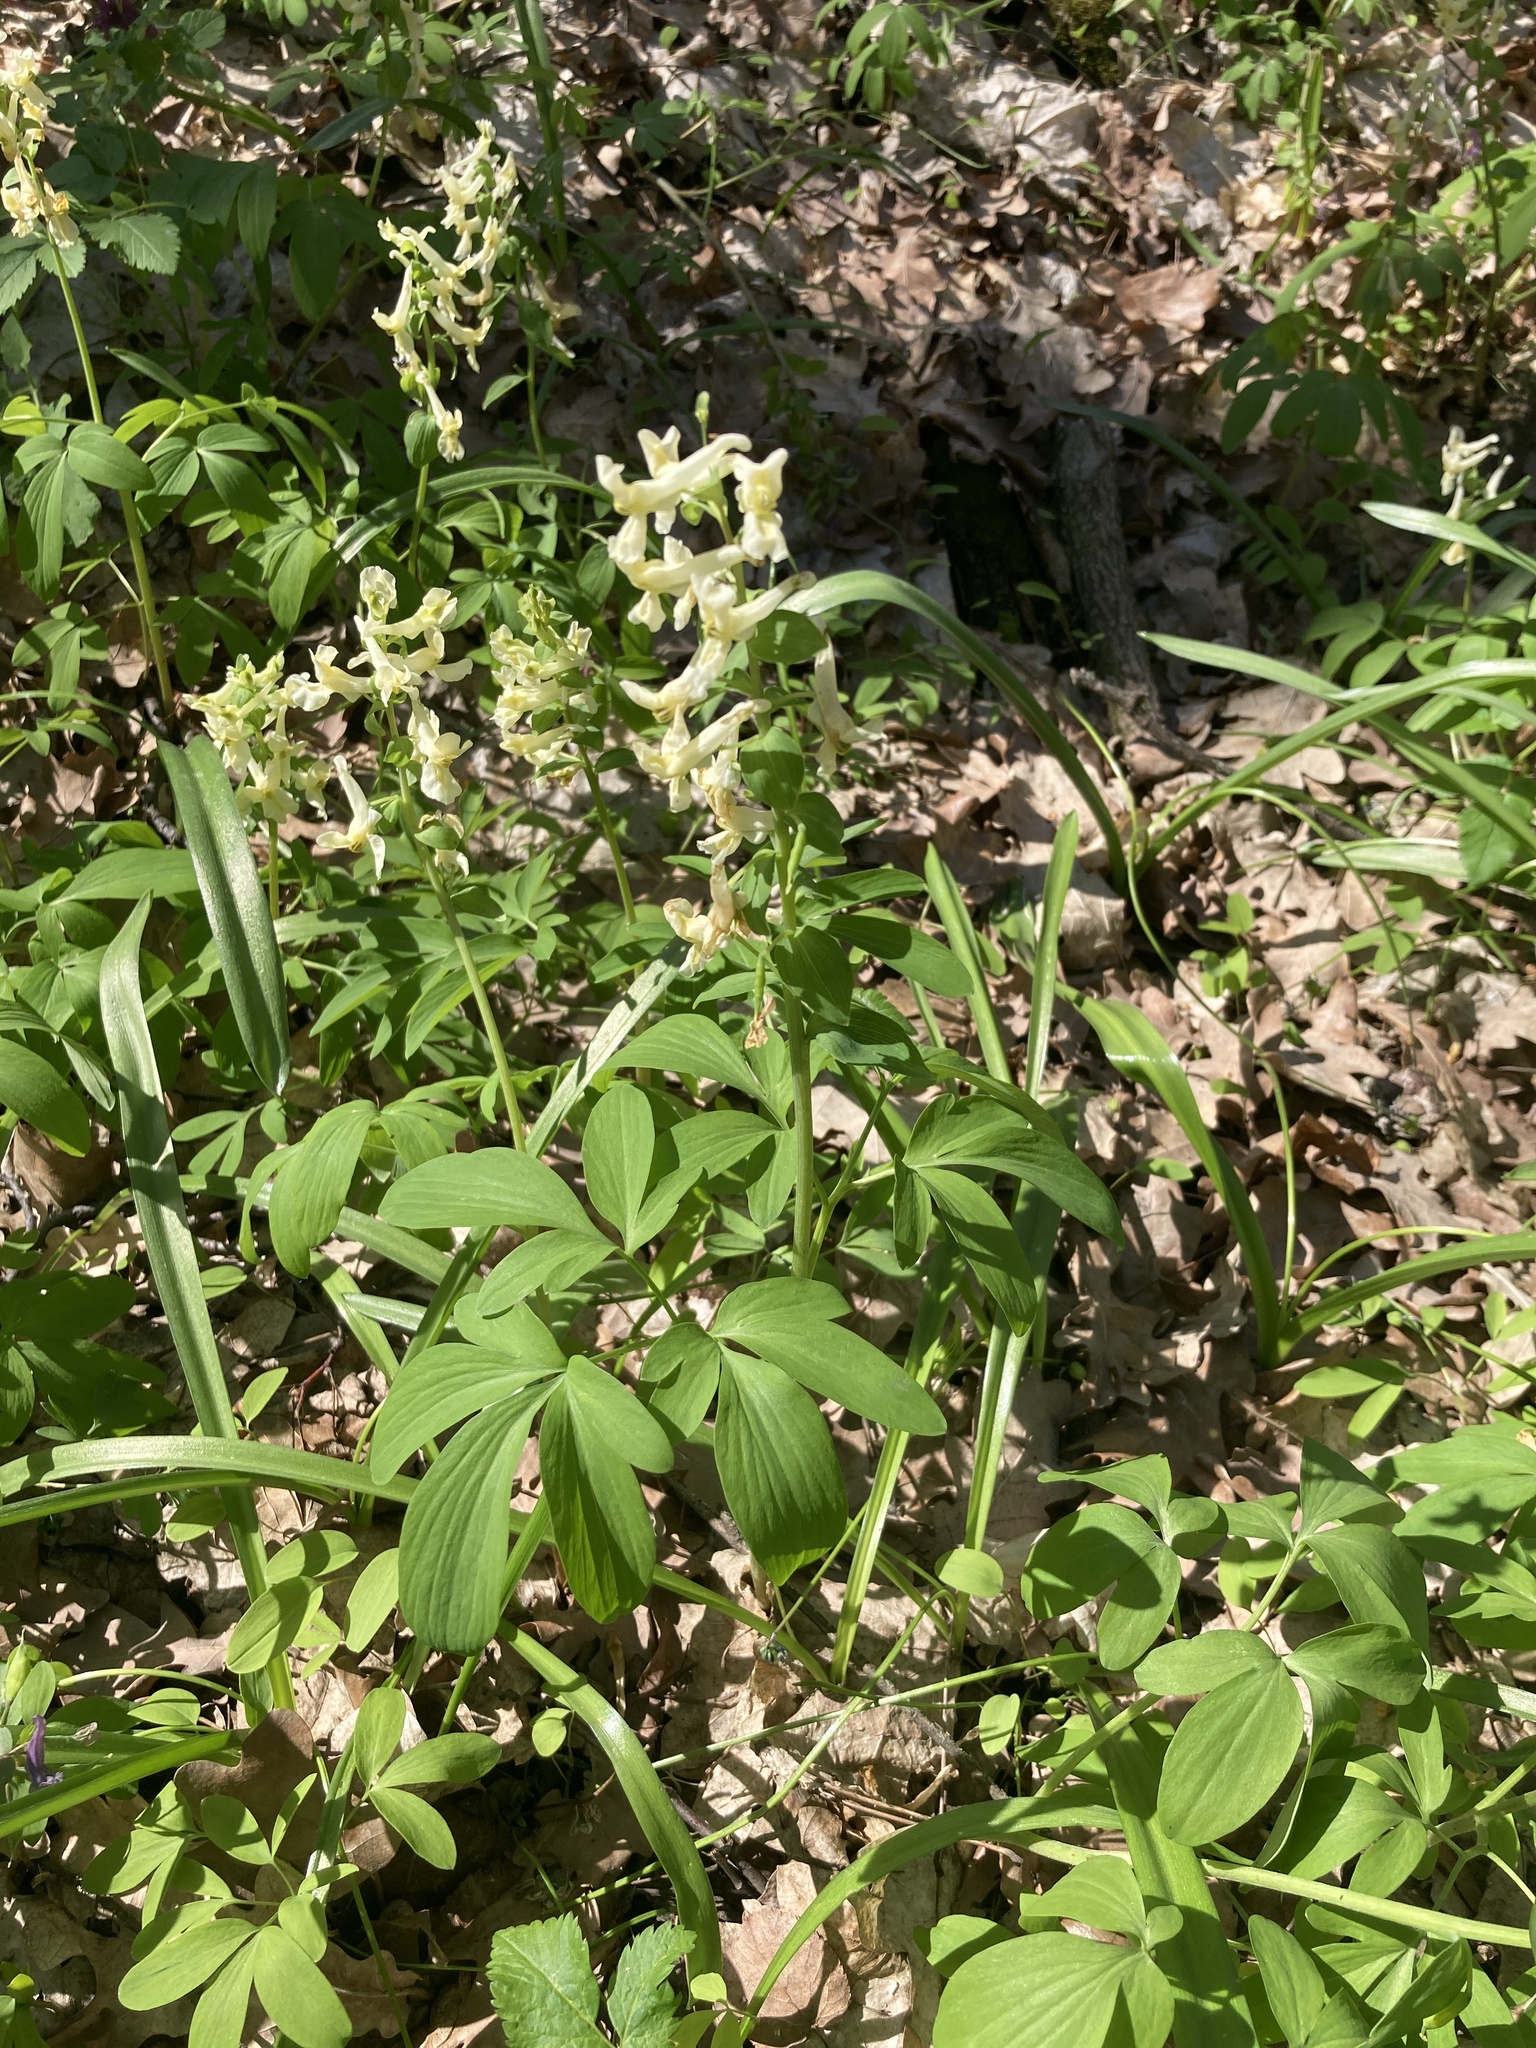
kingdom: Plantae
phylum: Tracheophyta
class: Magnoliopsida
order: Ranunculales
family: Papaveraceae
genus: Corydalis
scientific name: Corydalis cava
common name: Hollowroot
